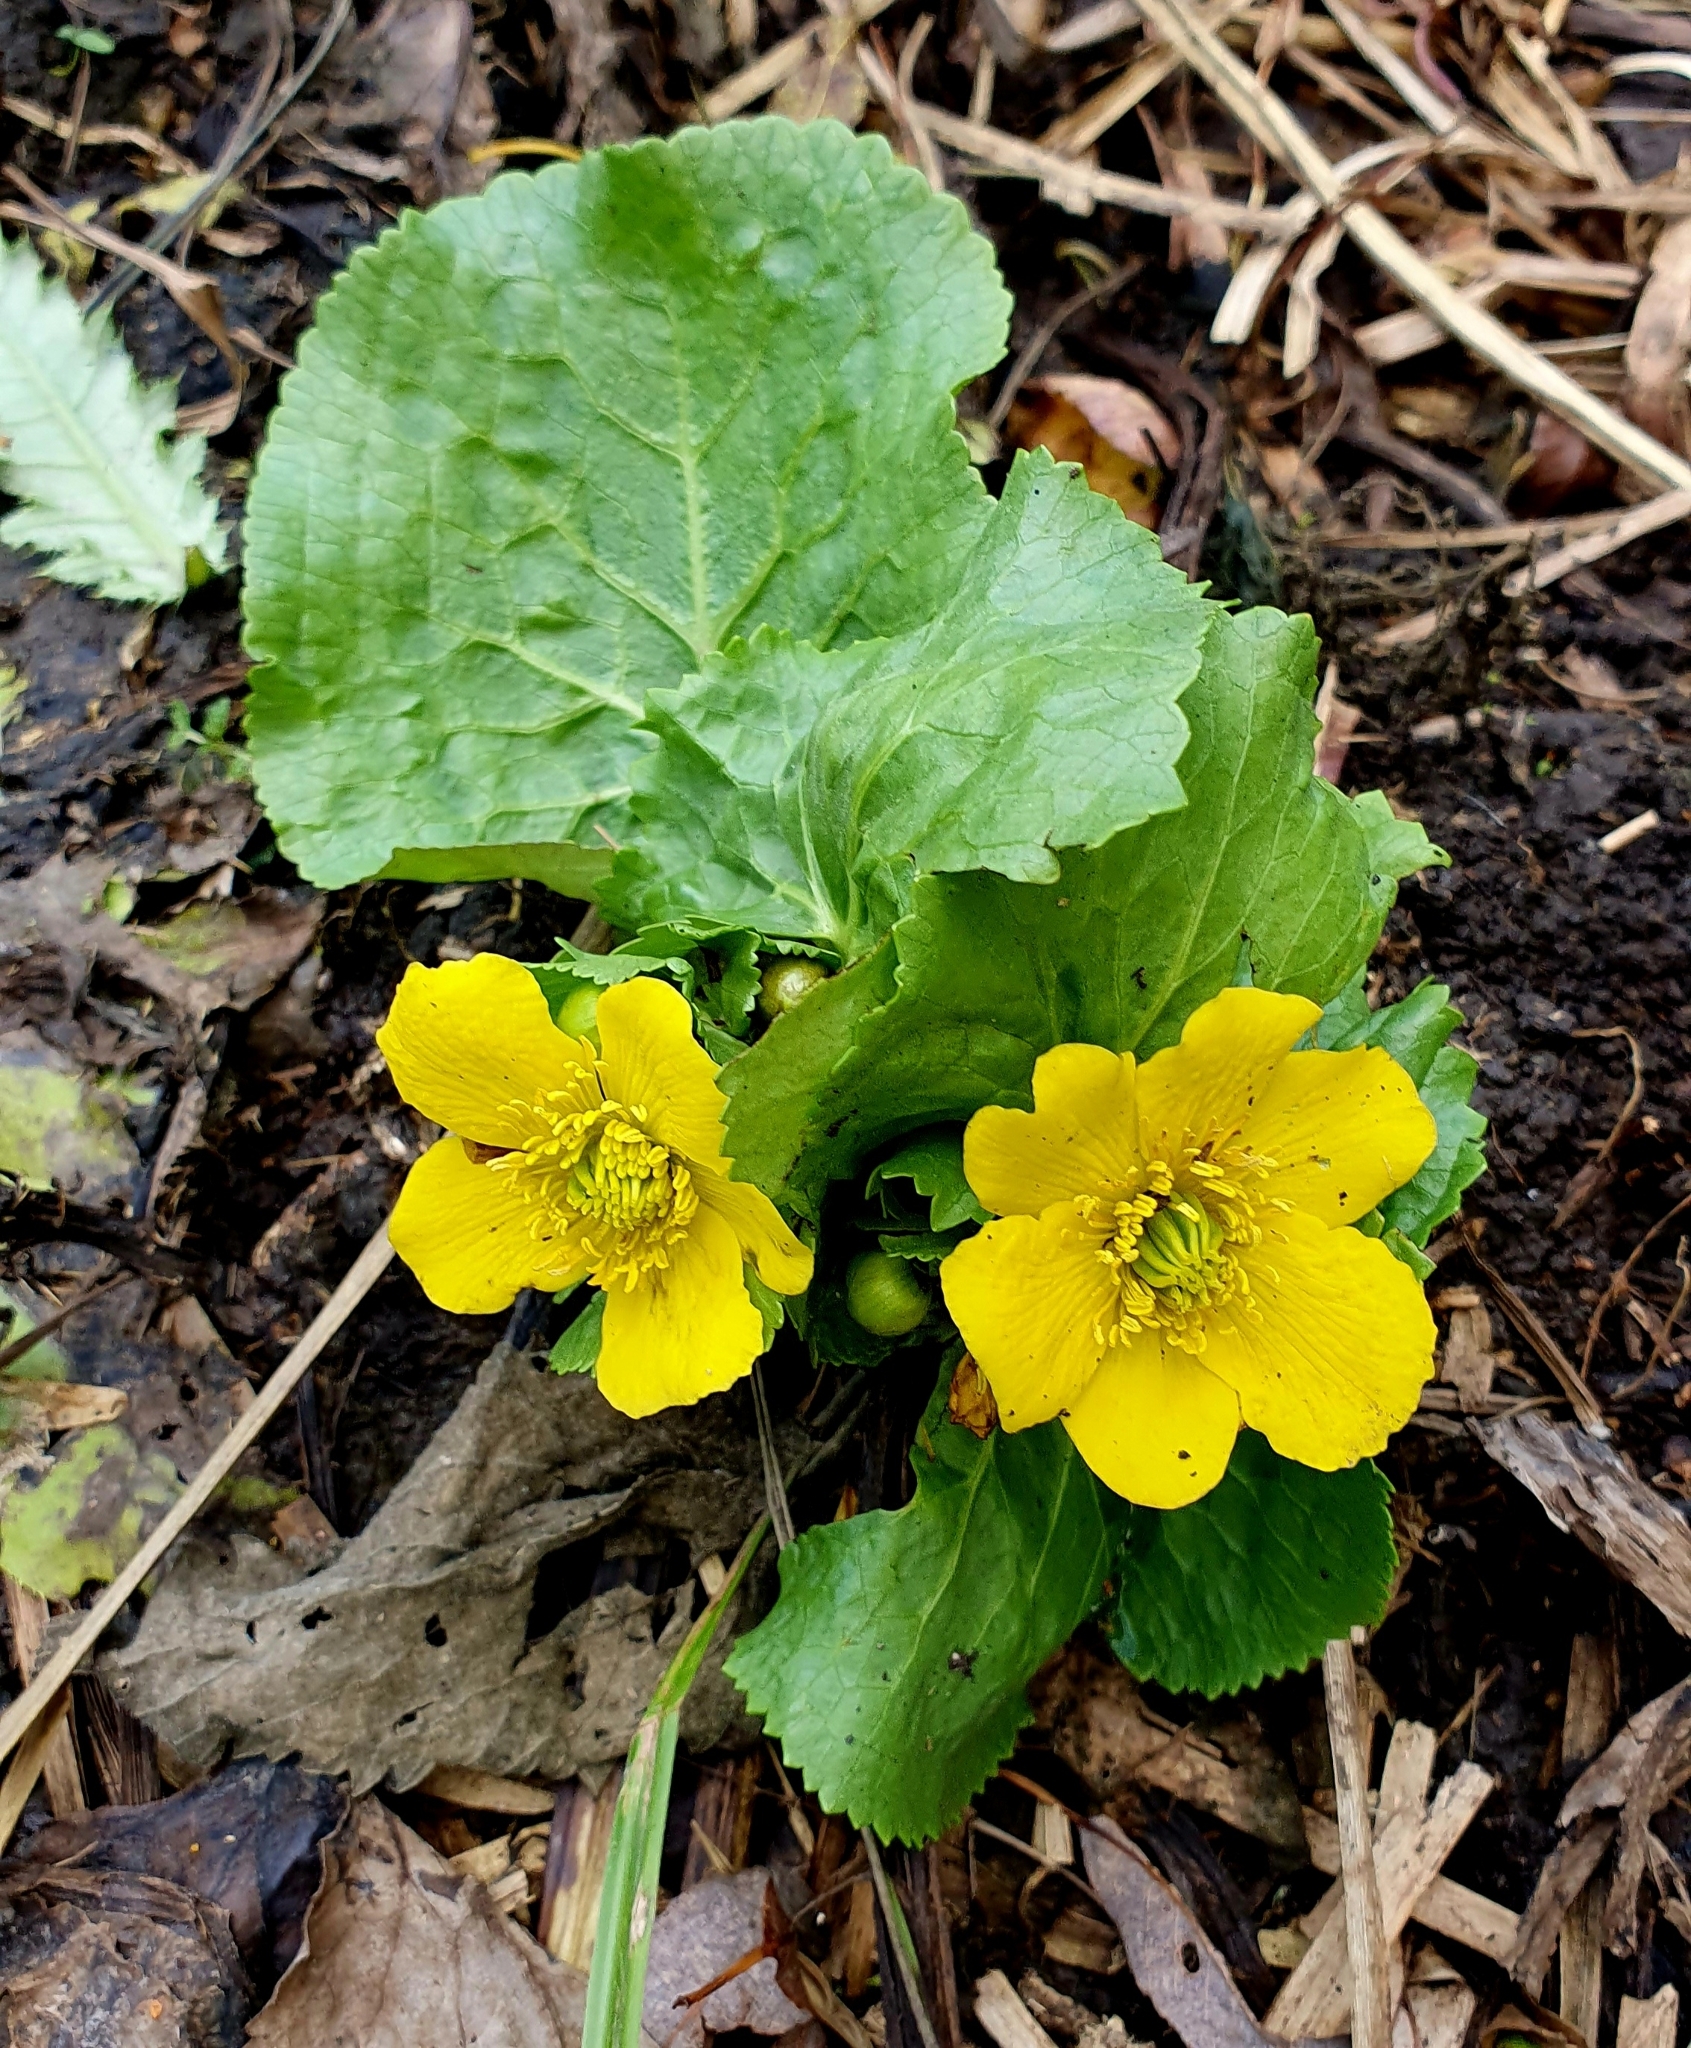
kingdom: Plantae
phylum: Tracheophyta
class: Magnoliopsida
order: Ranunculales
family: Ranunculaceae
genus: Caltha
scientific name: Caltha palustris
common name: Marsh marigold
